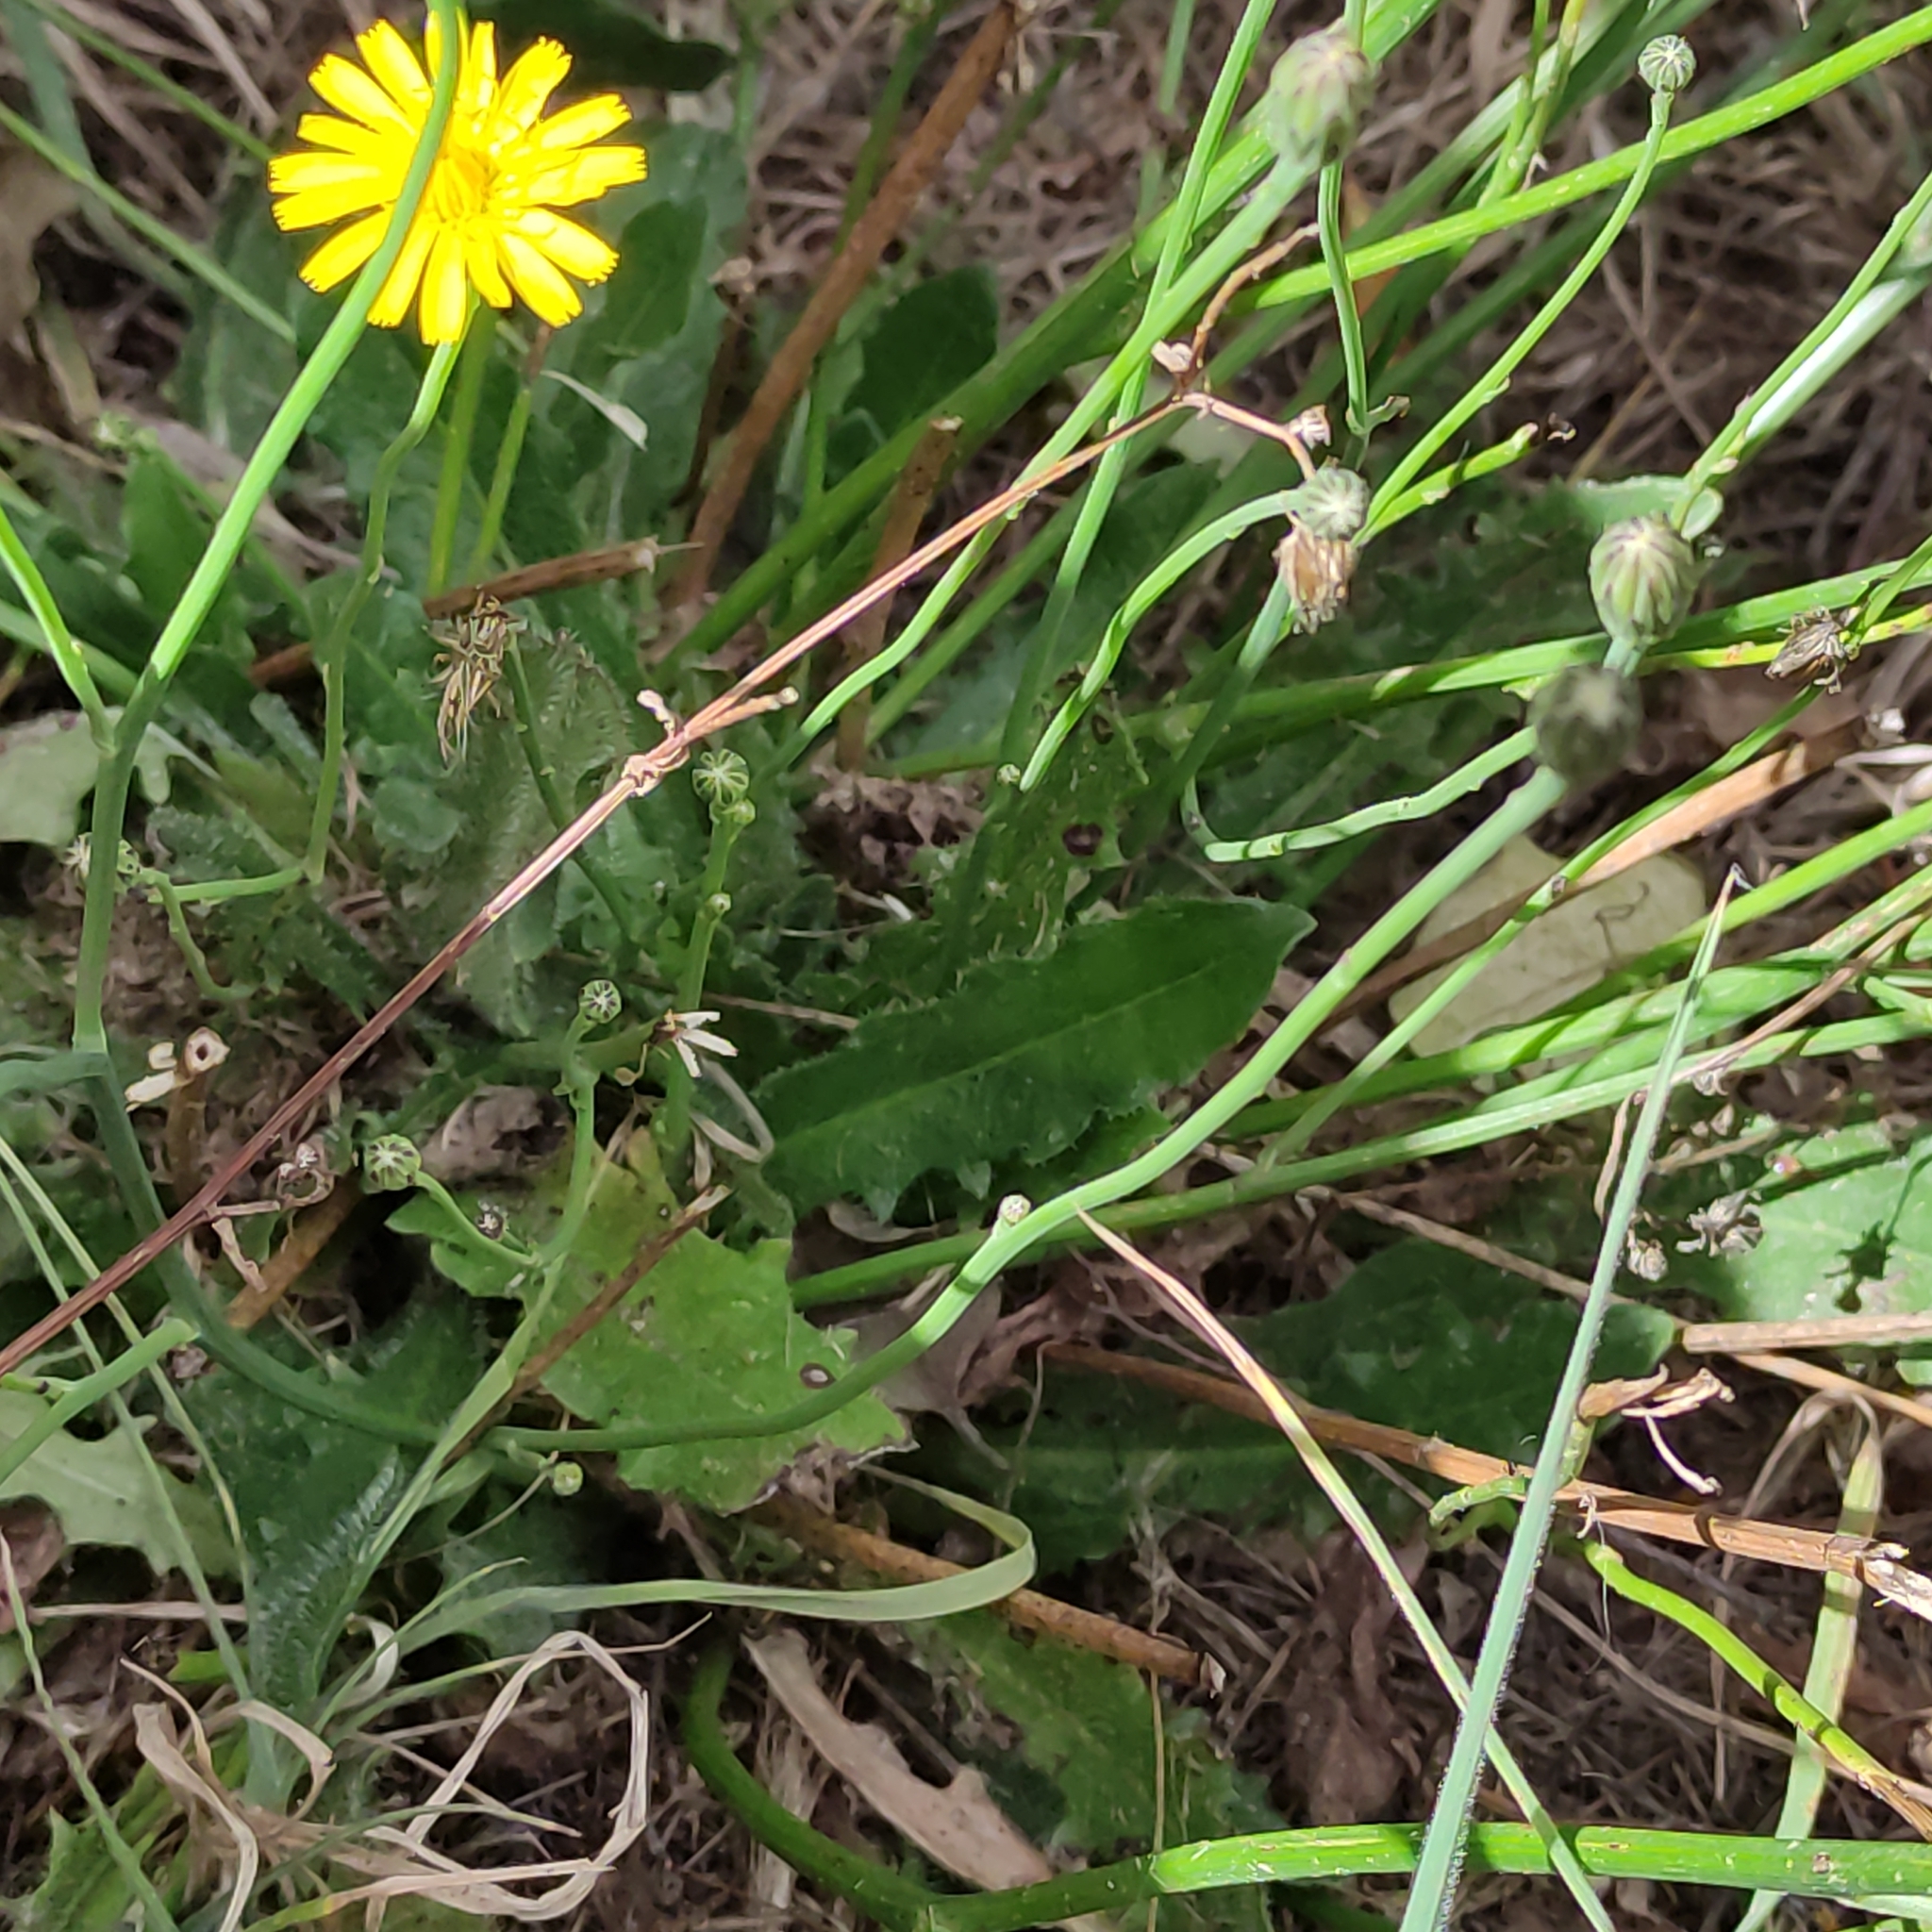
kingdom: Plantae
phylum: Tracheophyta
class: Magnoliopsida
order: Asterales
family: Asteraceae
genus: Hypochaeris
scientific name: Hypochaeris radicata
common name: Flatweed
